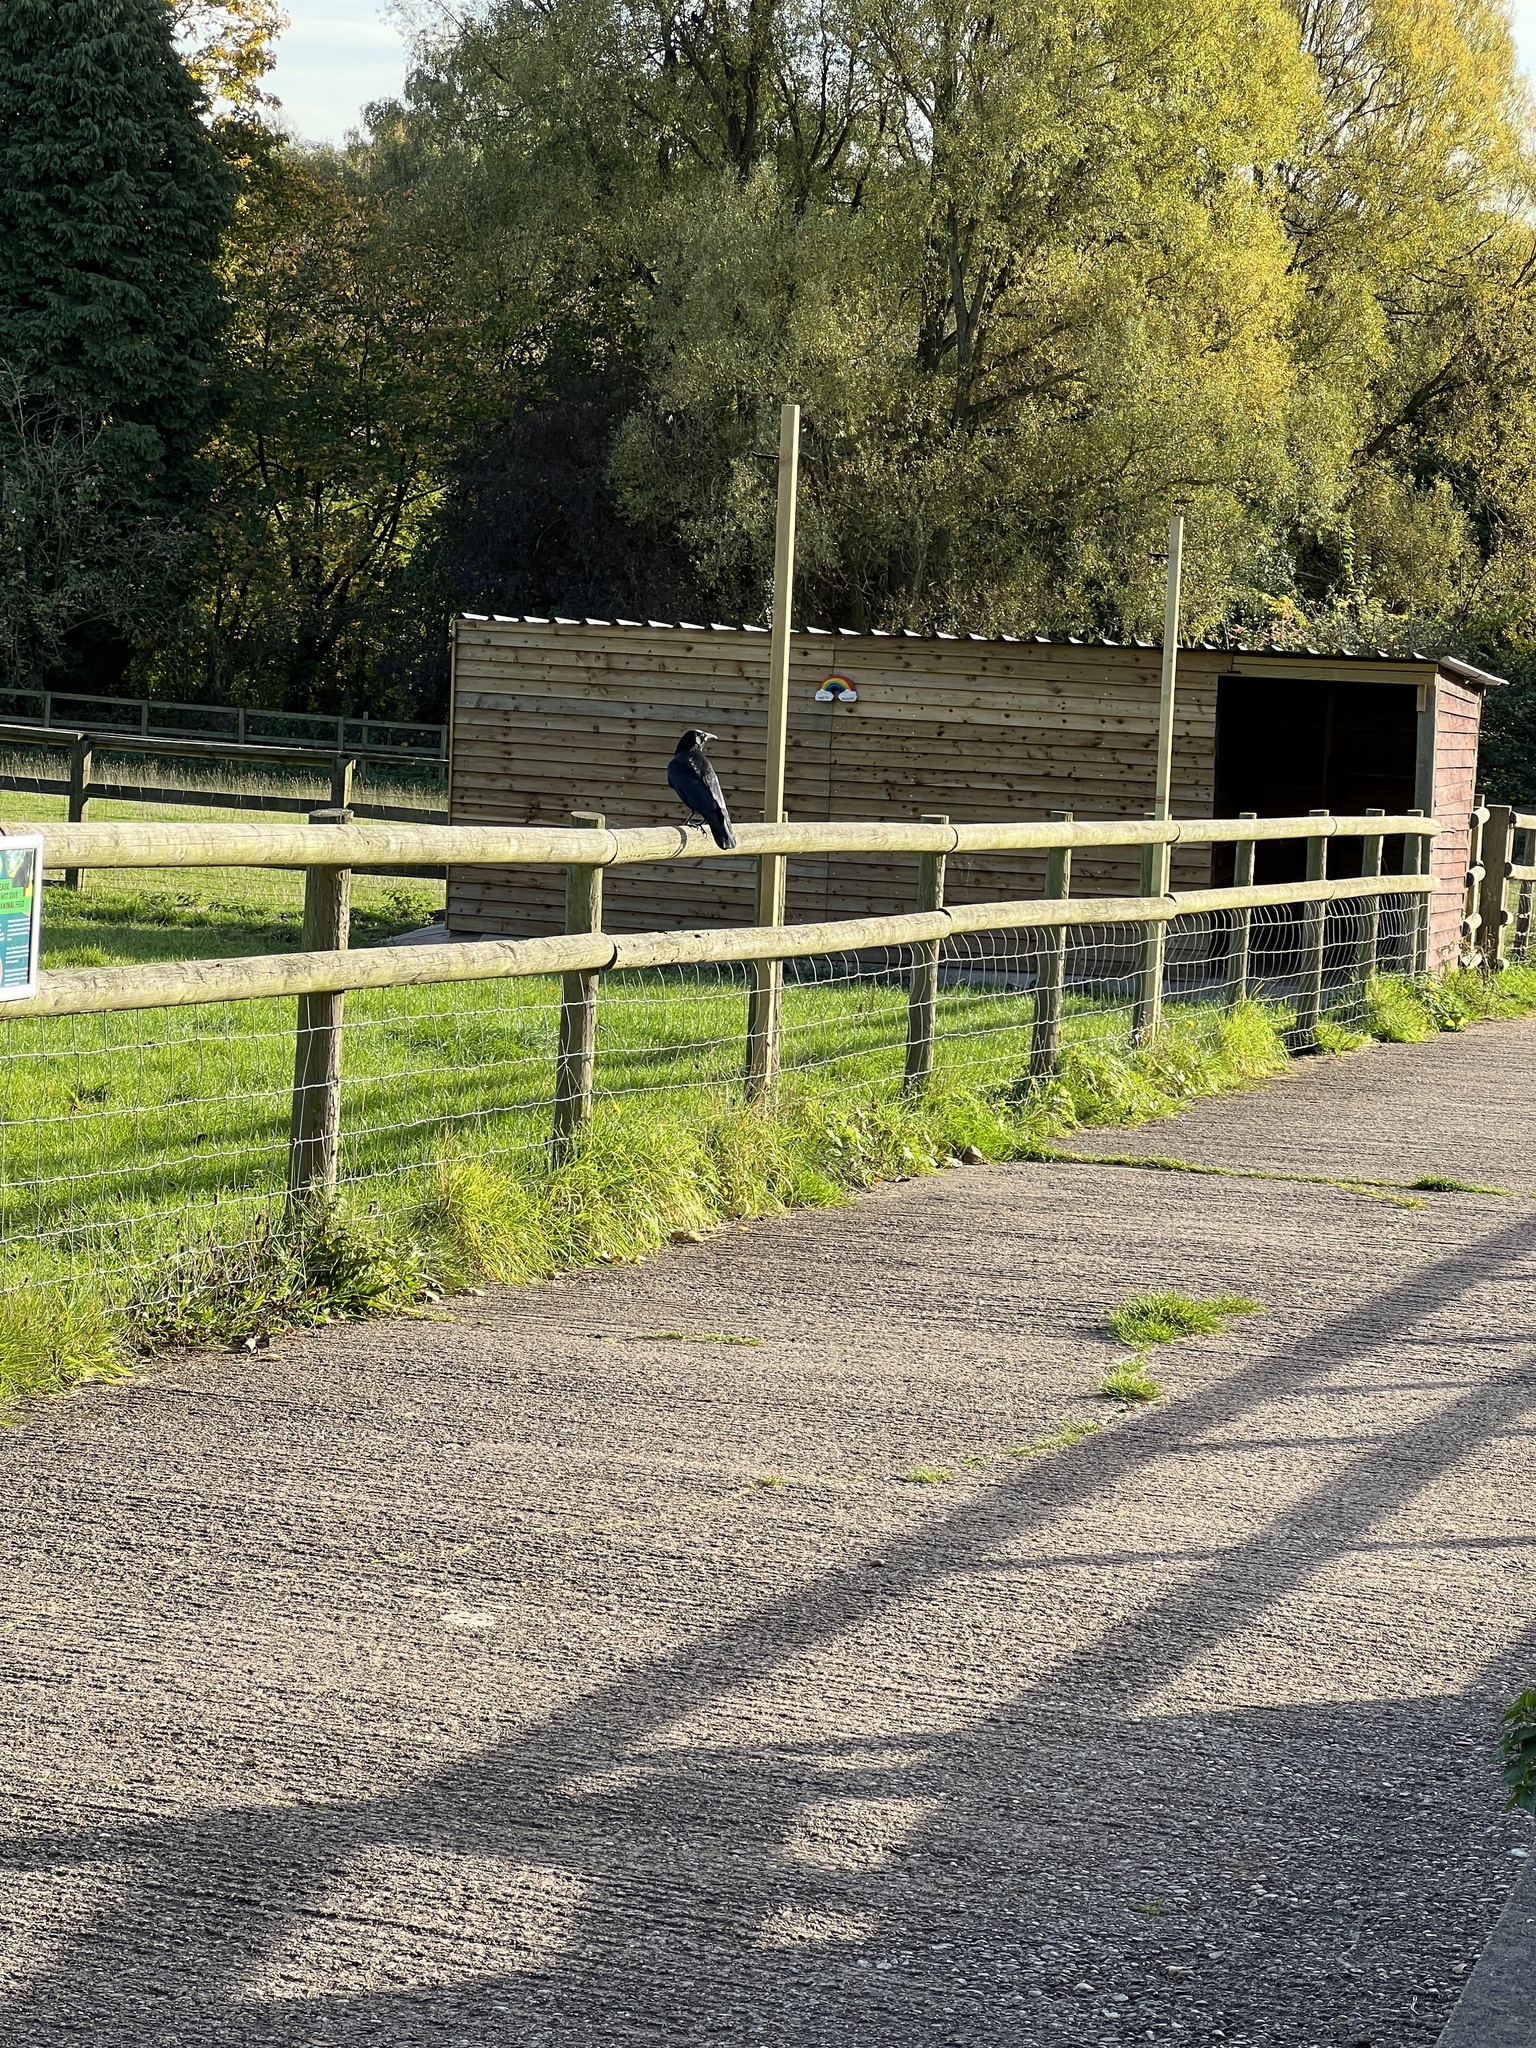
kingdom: Animalia
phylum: Chordata
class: Aves
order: Passeriformes
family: Corvidae
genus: Corvus
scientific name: Corvus corone
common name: Carrion crow
